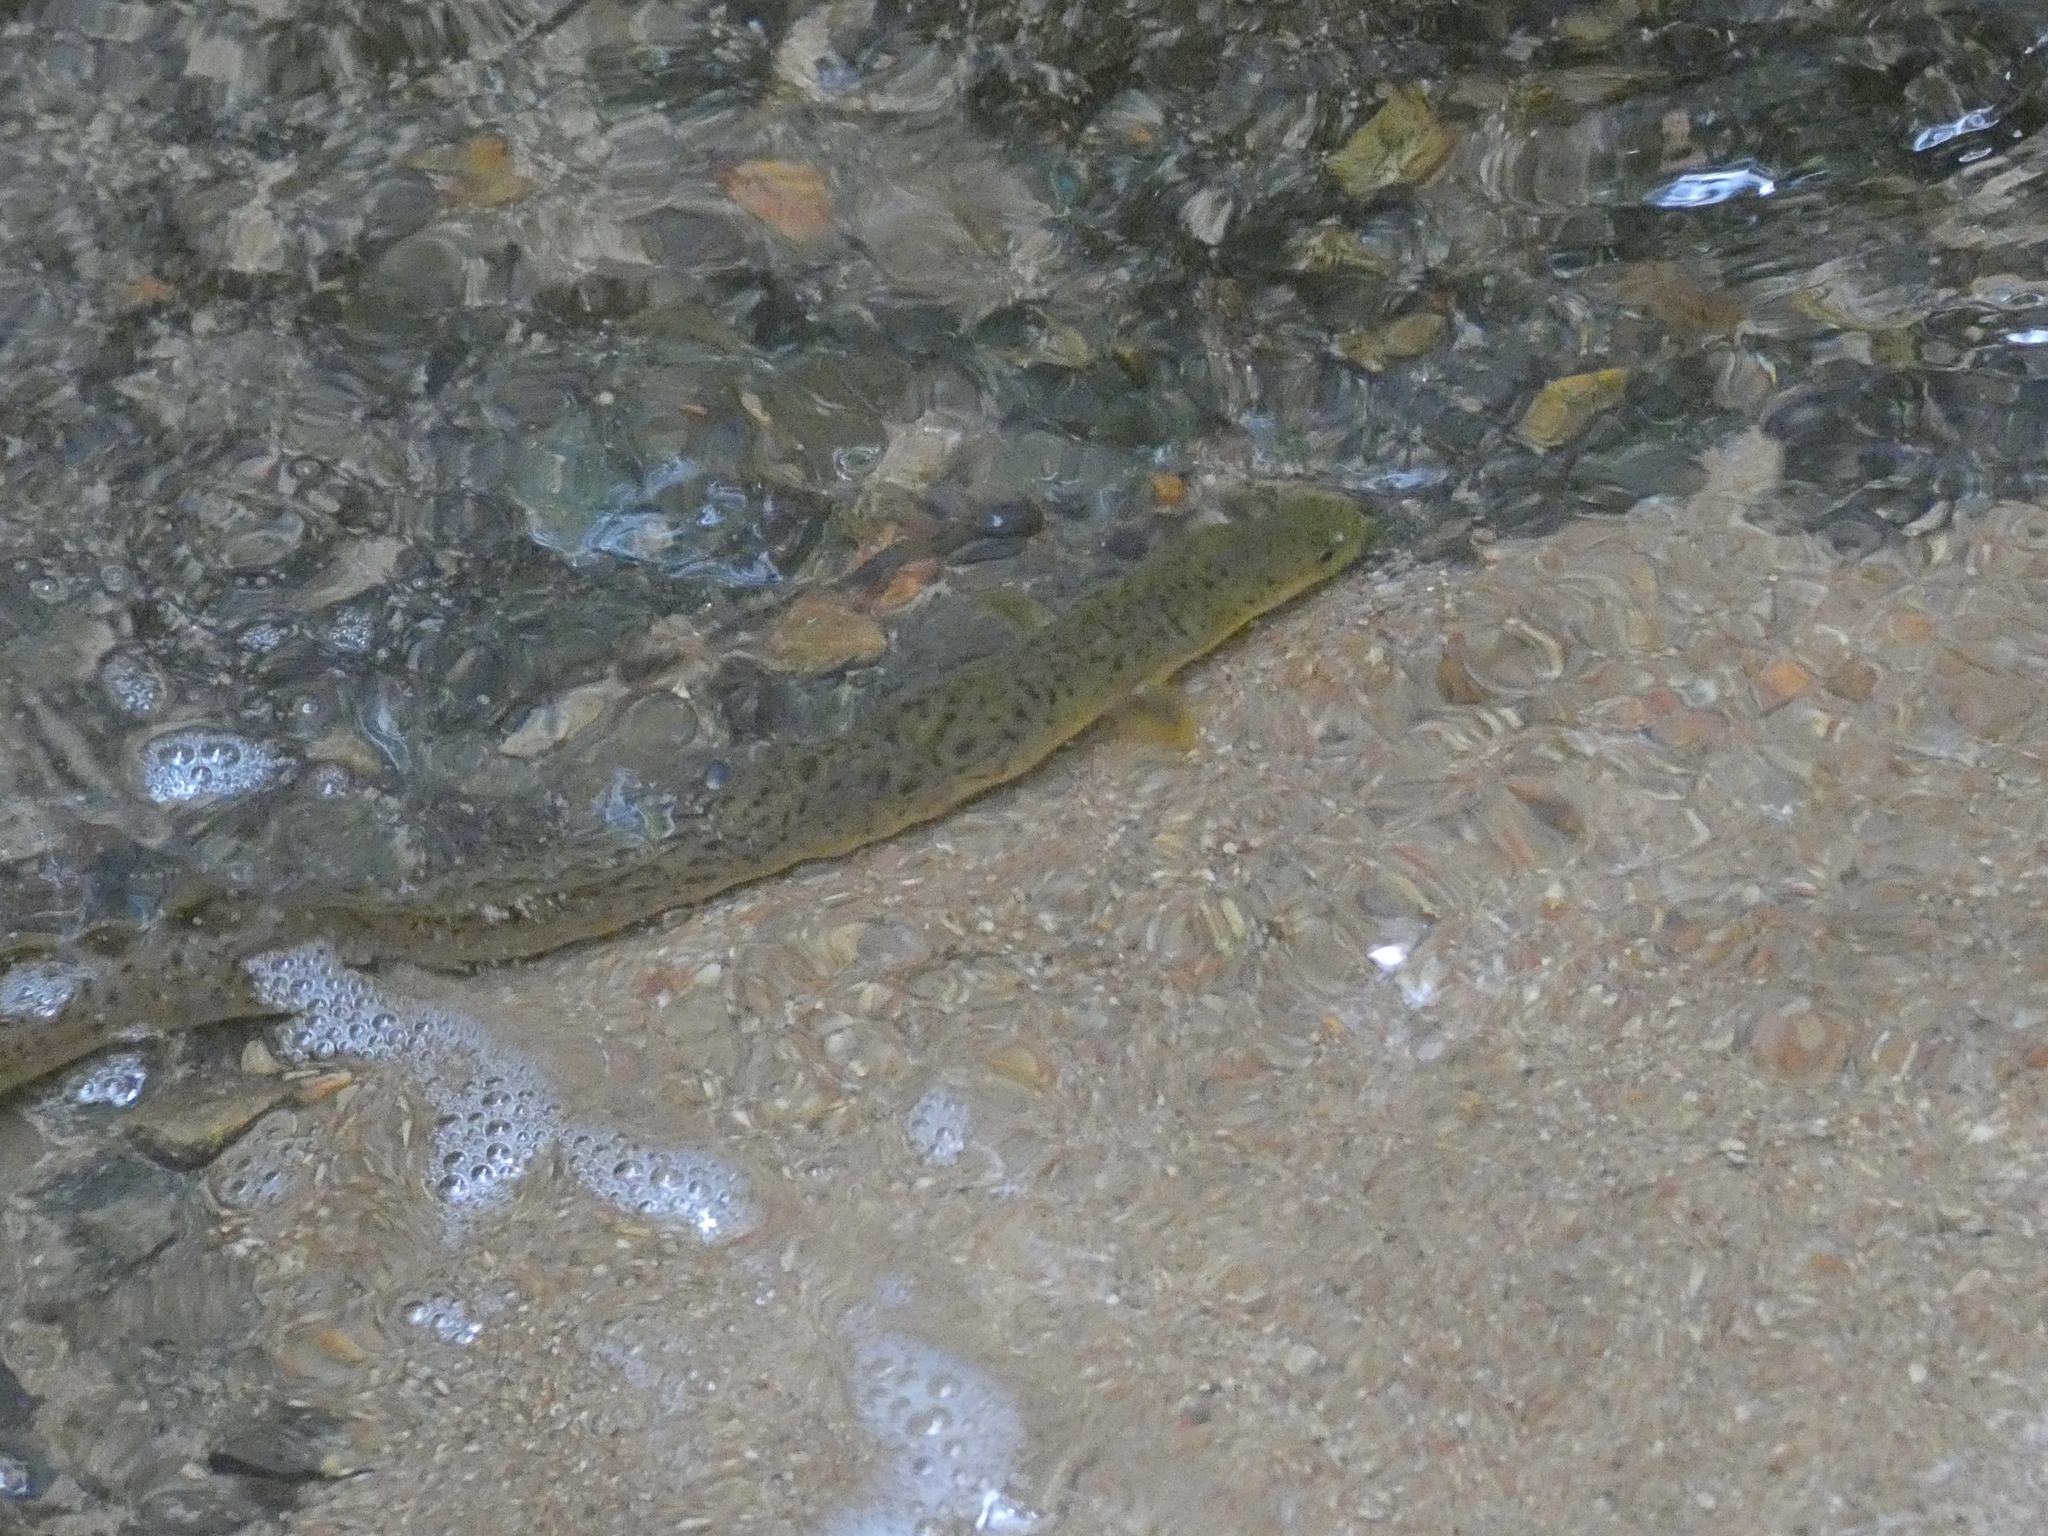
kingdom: Animalia
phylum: Chordata
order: Anguilliformes
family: Anguillidae
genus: Anguilla
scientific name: Anguilla reinhardtii
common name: Longfin eel
